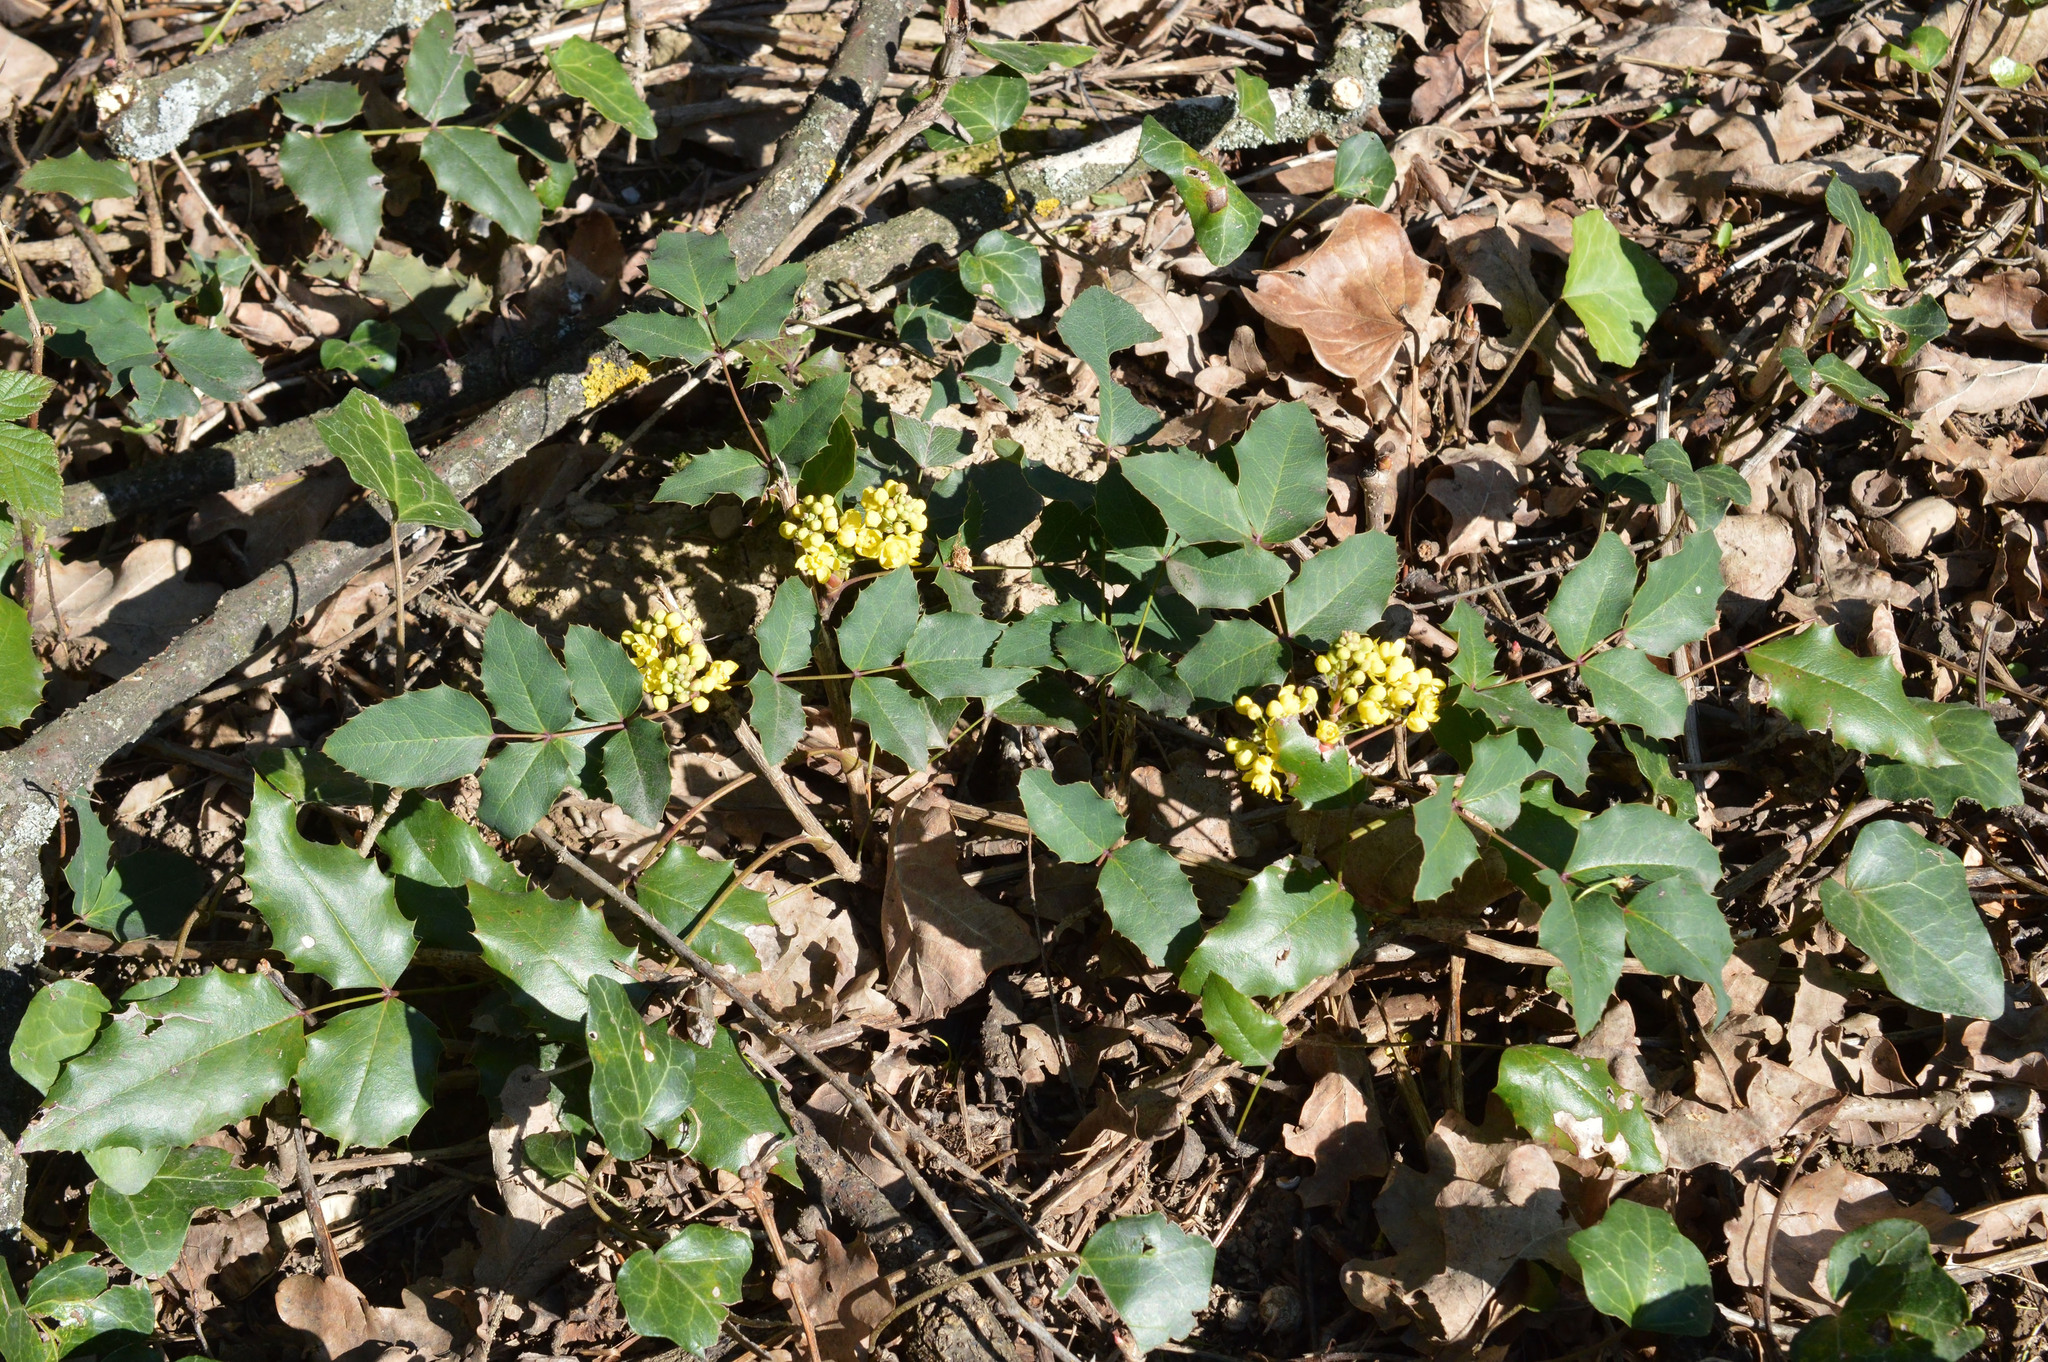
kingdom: Plantae
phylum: Tracheophyta
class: Magnoliopsida
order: Ranunculales
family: Berberidaceae
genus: Mahonia
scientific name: Mahonia aquifolium
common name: Oregon-grape
